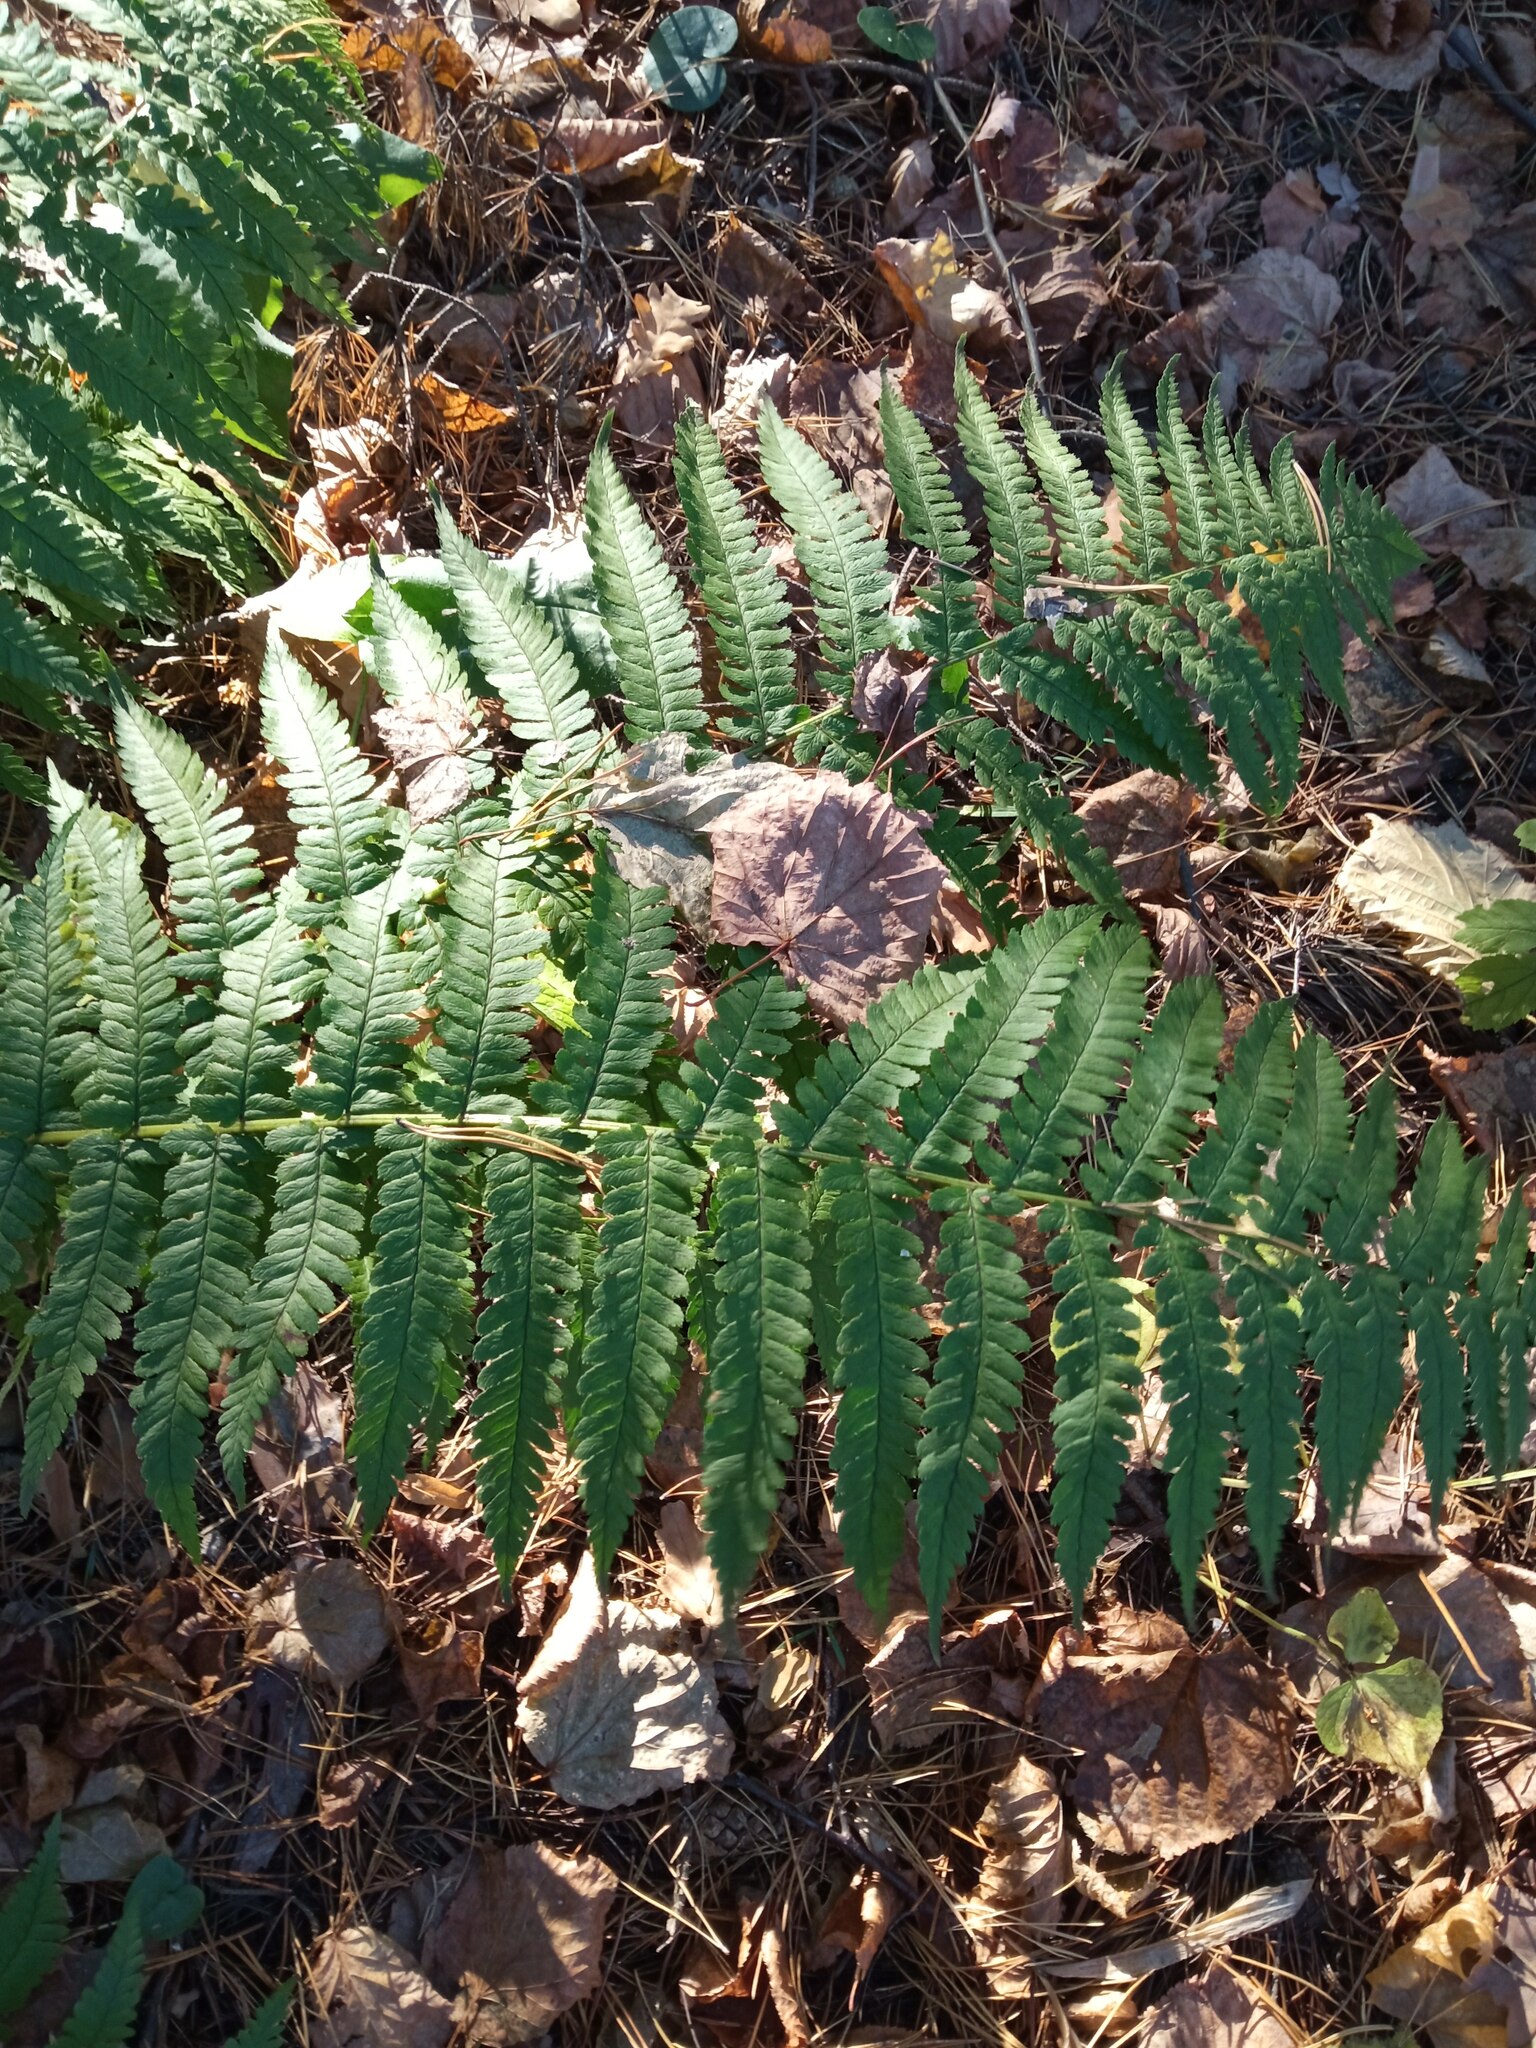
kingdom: Plantae
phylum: Tracheophyta
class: Polypodiopsida
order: Polypodiales
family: Dryopteridaceae
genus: Dryopteris
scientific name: Dryopteris filix-mas
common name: Male fern
